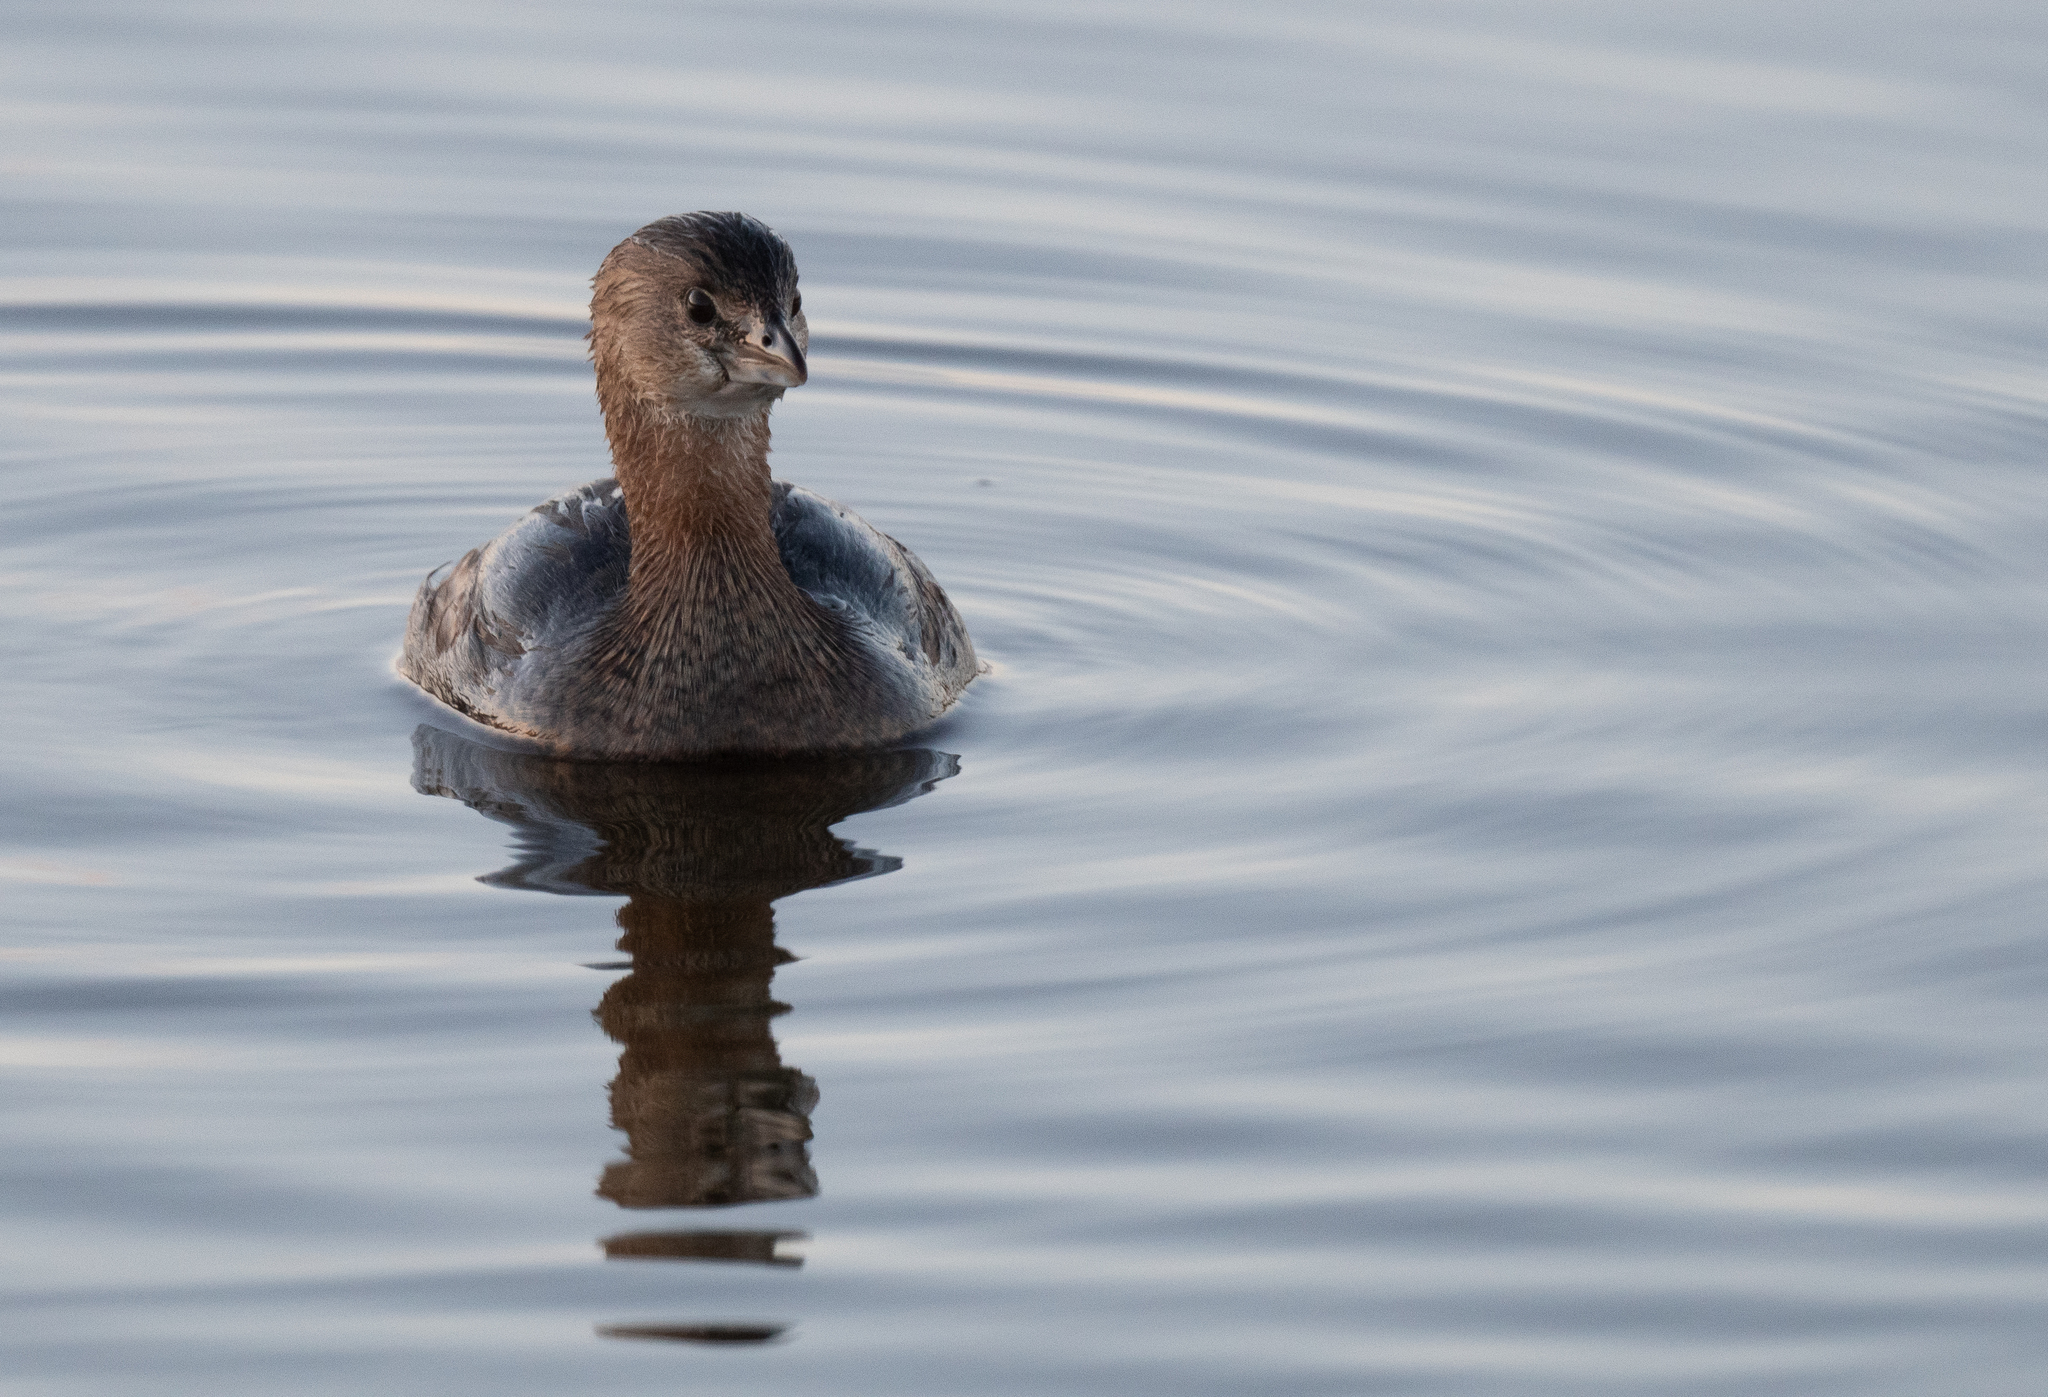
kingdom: Animalia
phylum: Chordata
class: Aves
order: Podicipediformes
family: Podicipedidae
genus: Podilymbus
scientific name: Podilymbus podiceps
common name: Pied-billed grebe
